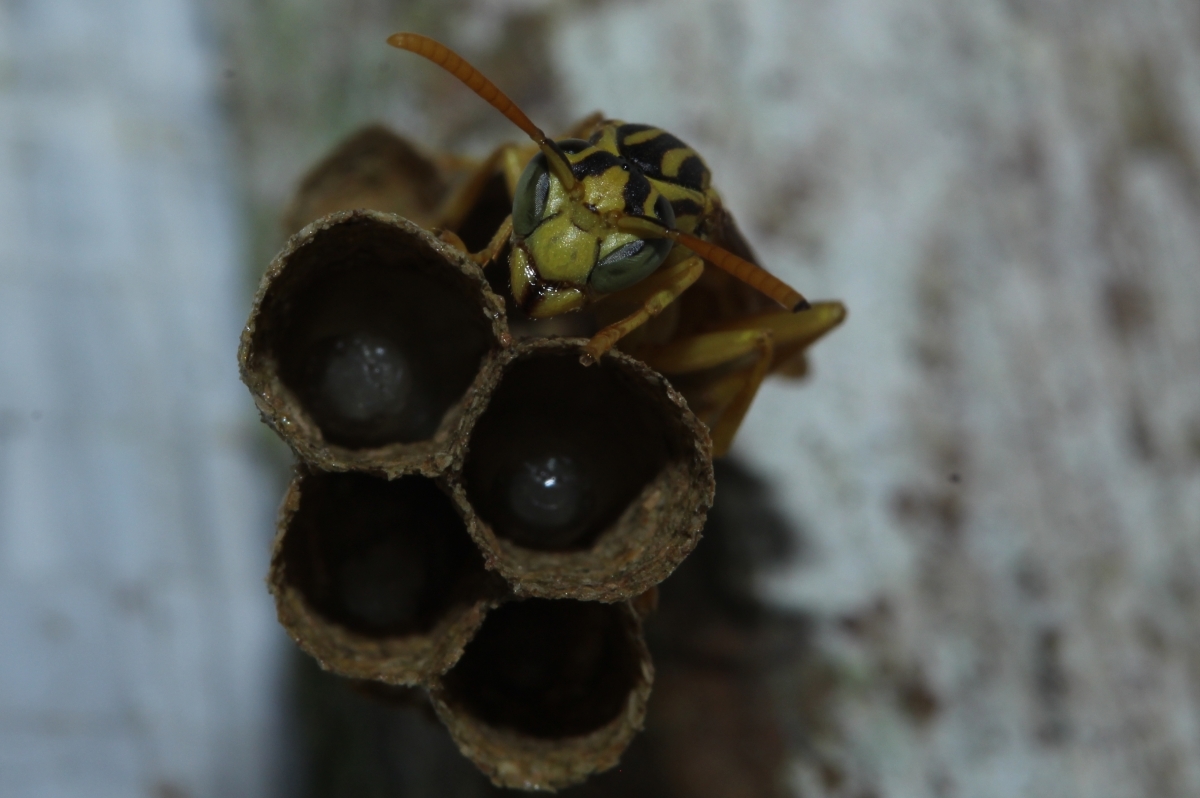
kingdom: Animalia
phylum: Arthropoda
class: Insecta
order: Hymenoptera
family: Vespidae
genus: Mischocyttarus
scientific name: Mischocyttarus
